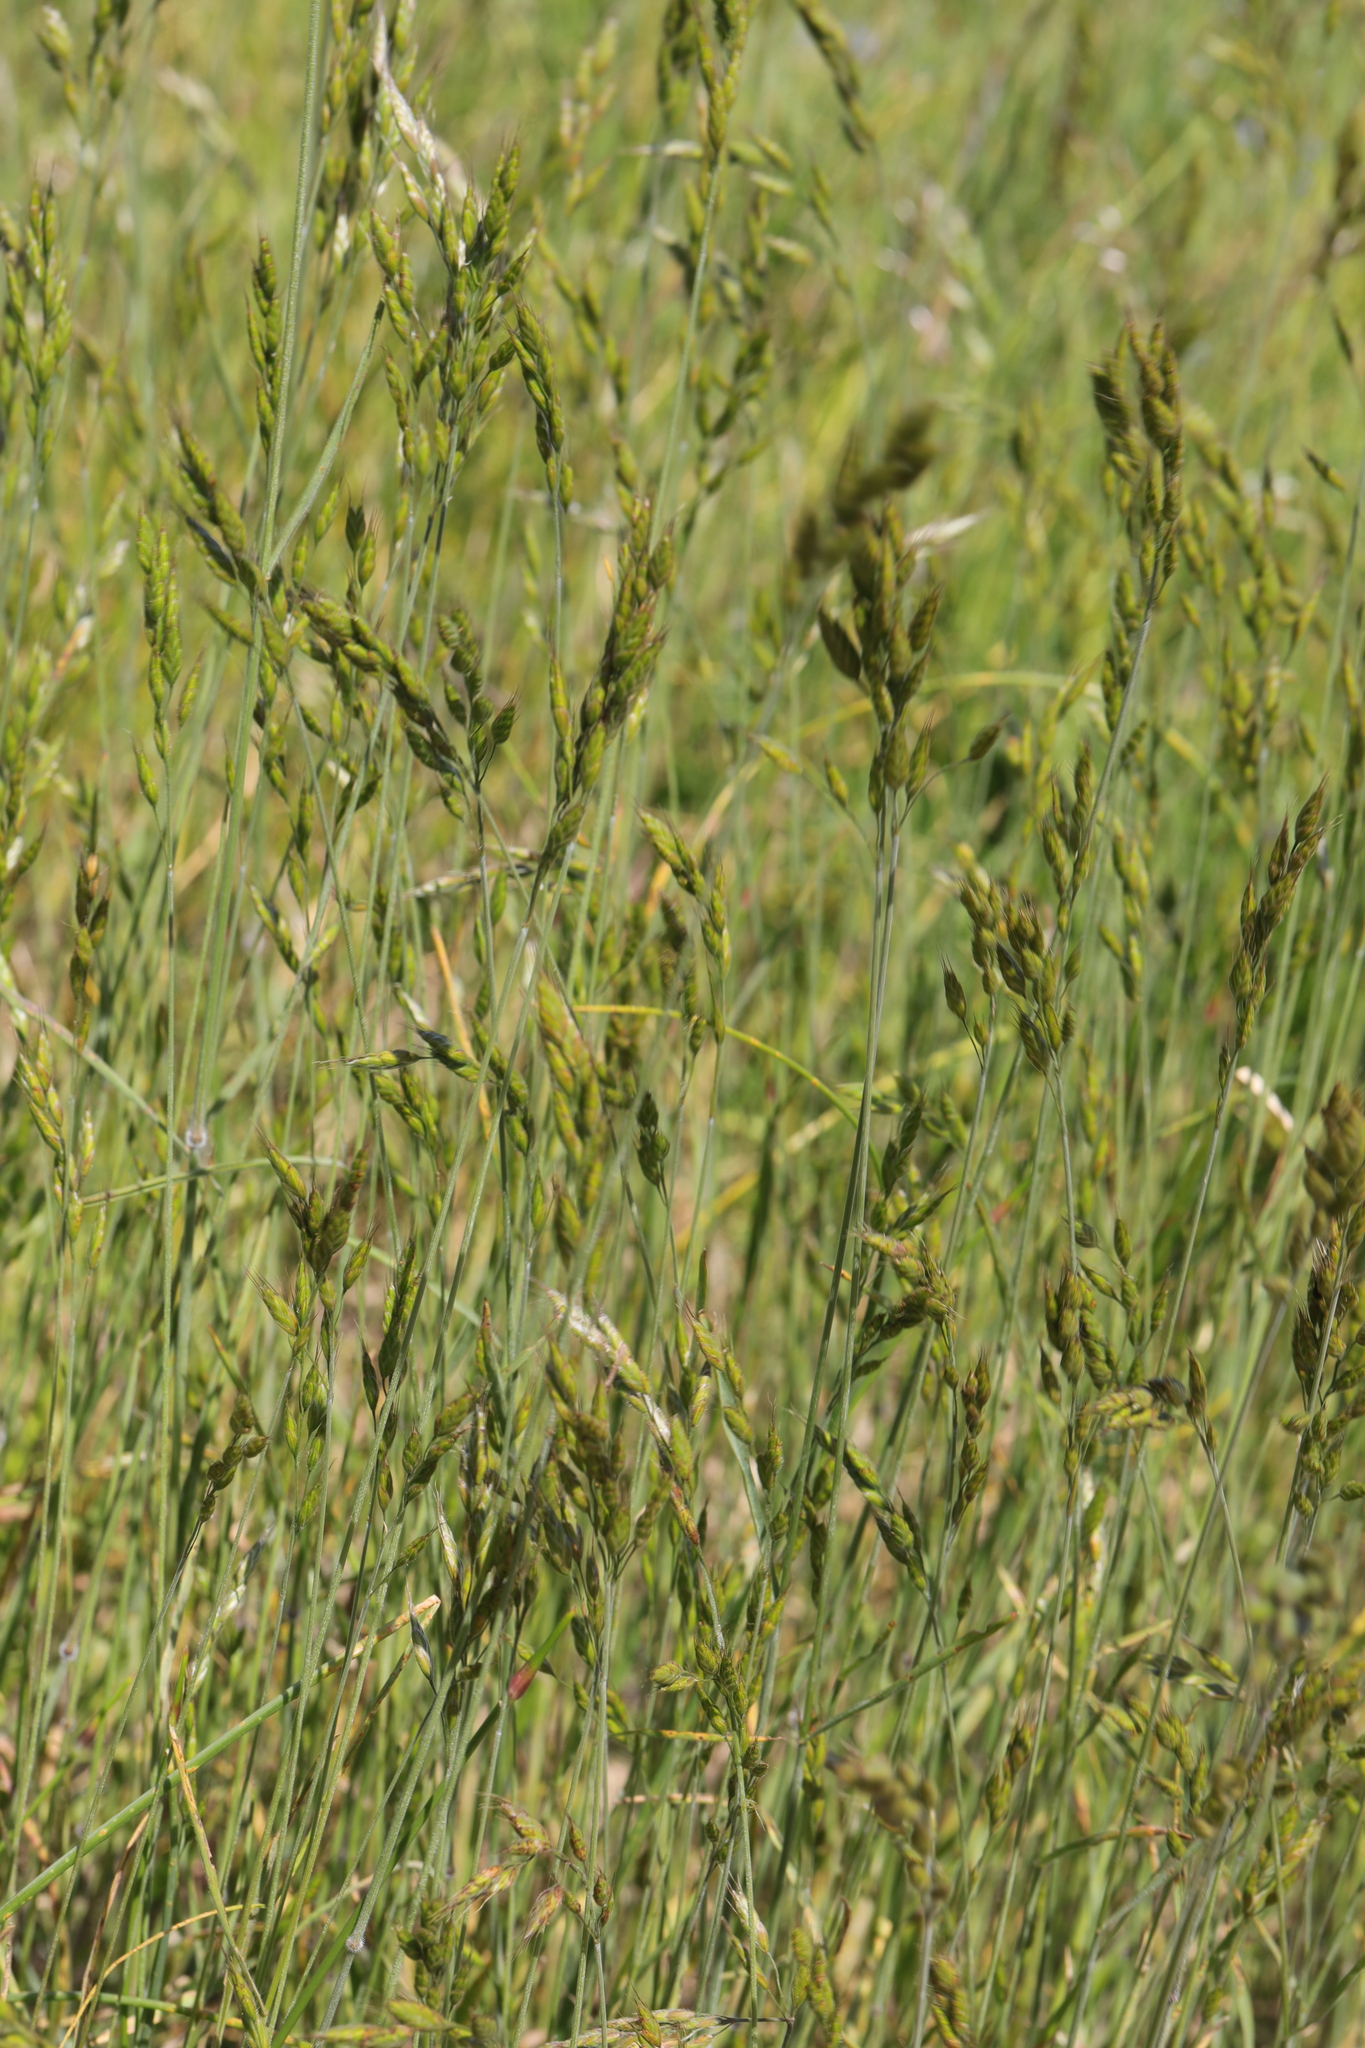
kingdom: Plantae
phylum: Tracheophyta
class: Liliopsida
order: Poales
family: Poaceae
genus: Bromus
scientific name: Bromus hordeaceus
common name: Soft brome
